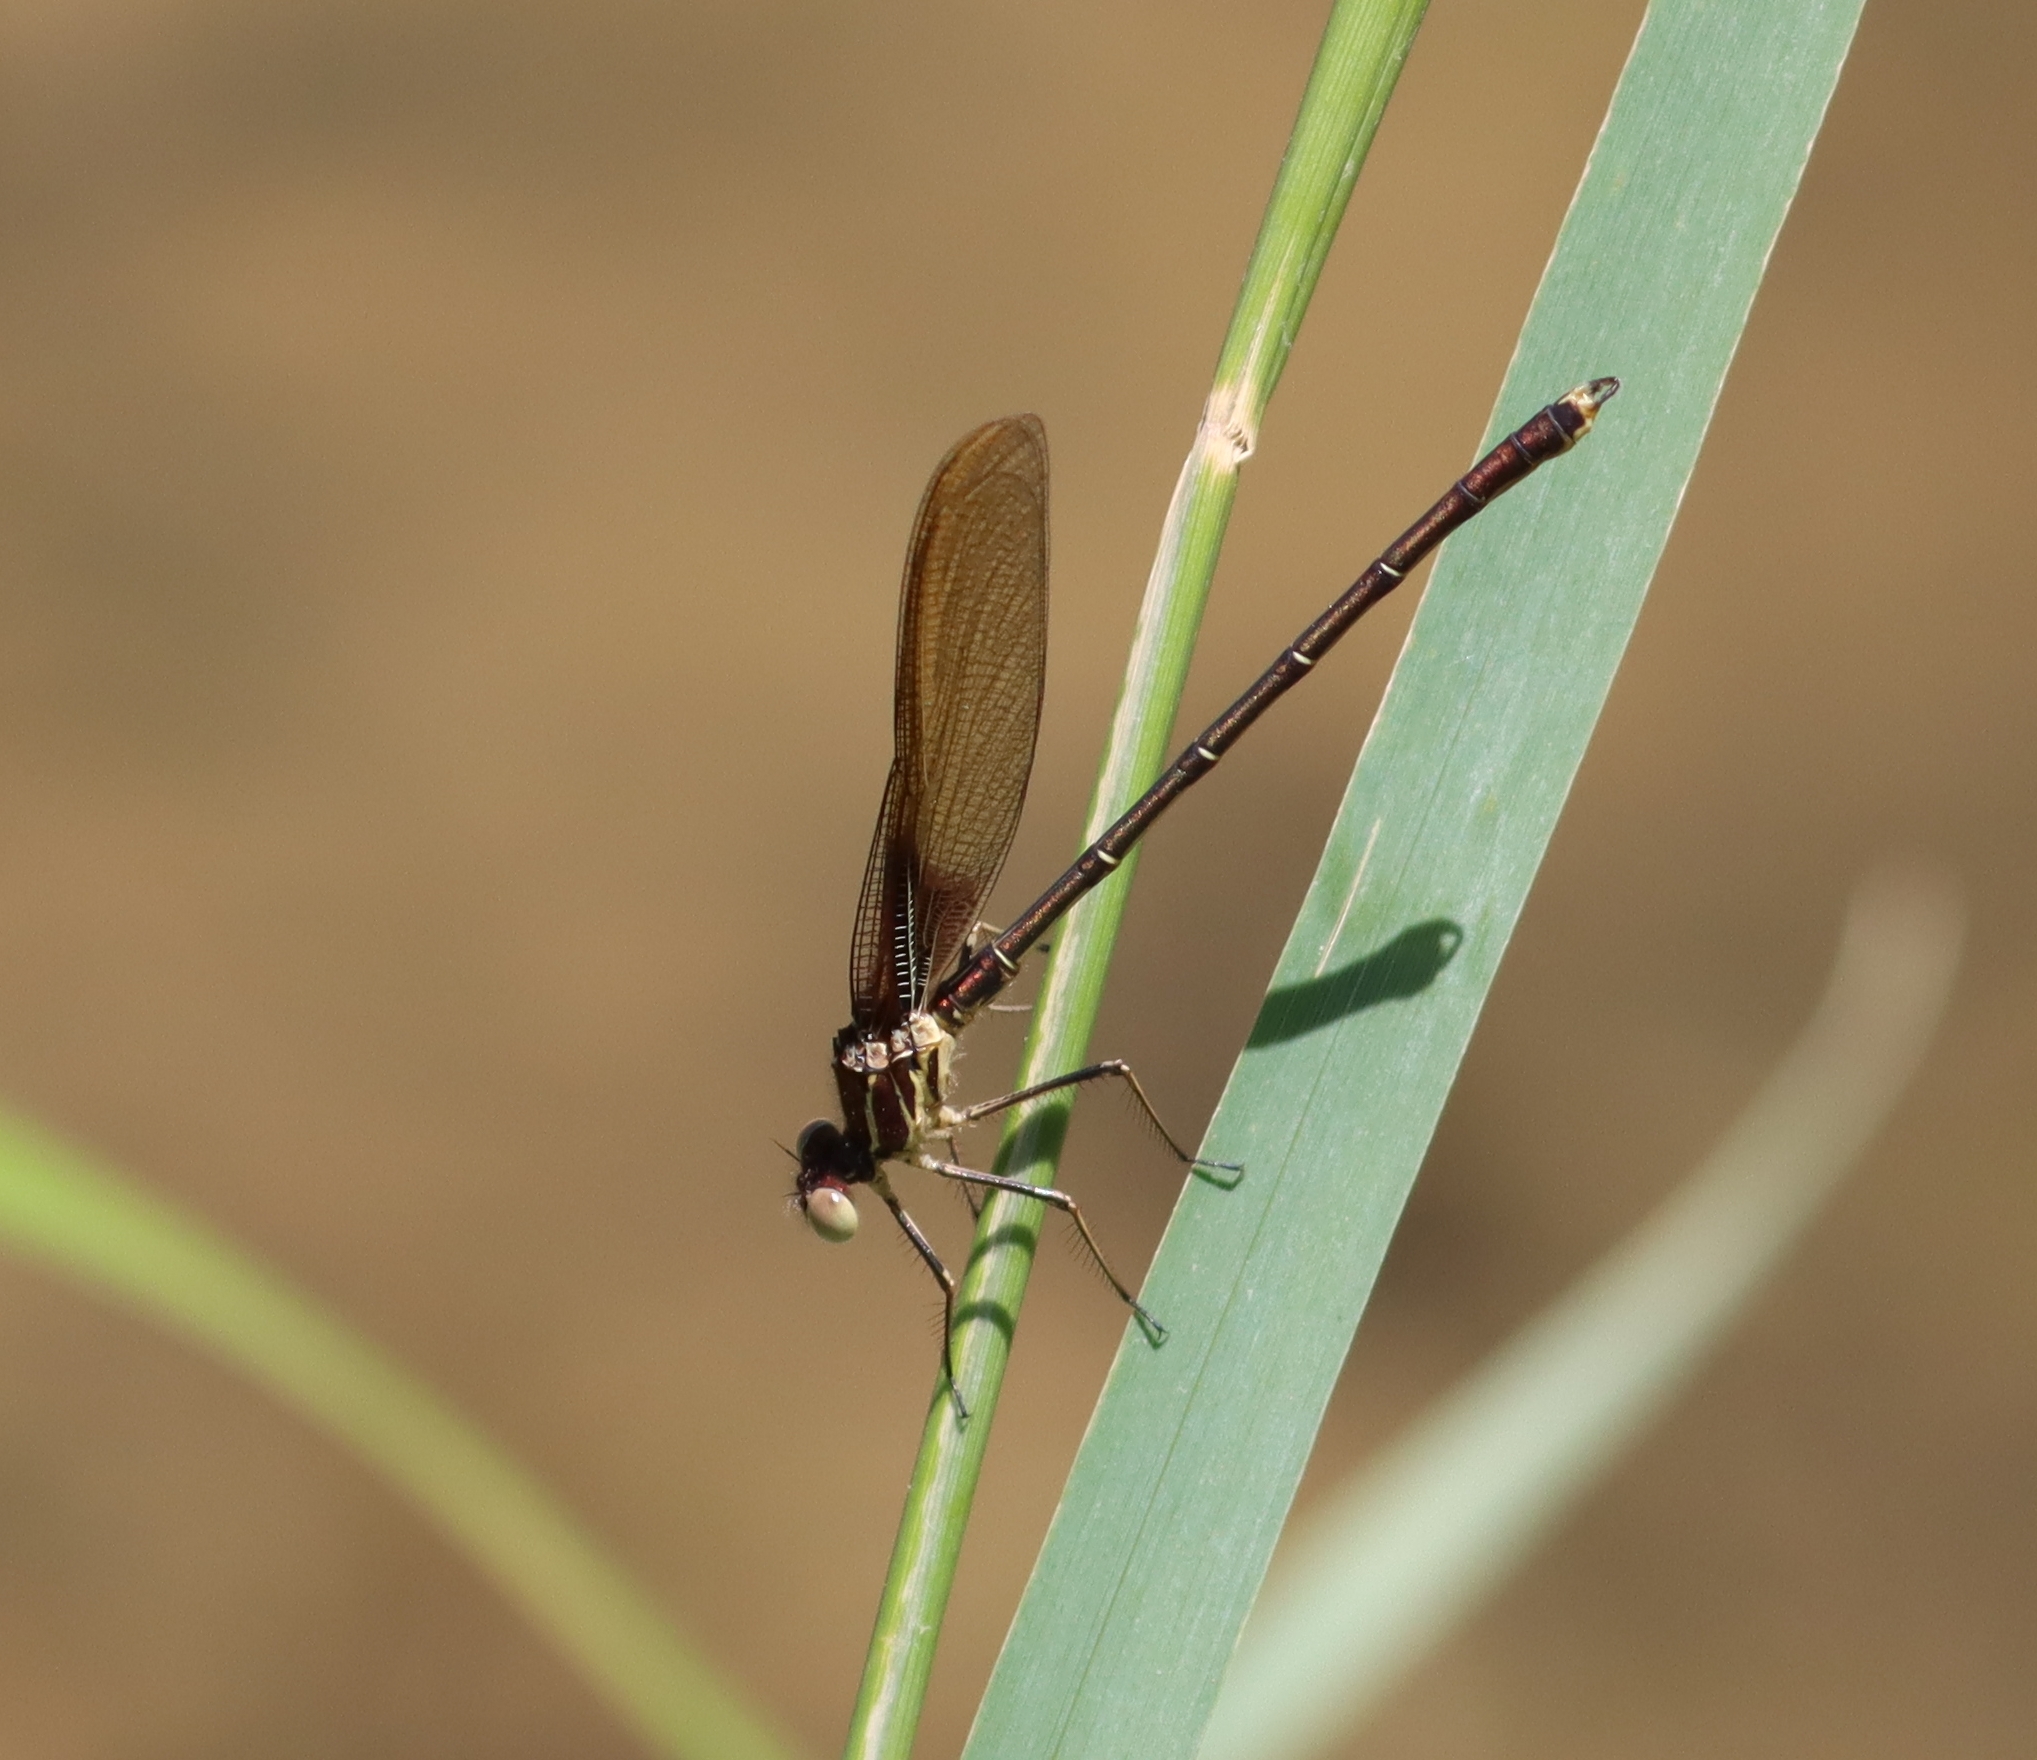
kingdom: Animalia
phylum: Arthropoda
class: Insecta
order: Odonata
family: Calopterygidae
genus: Hetaerina
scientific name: Hetaerina americana
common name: American rubyspot
